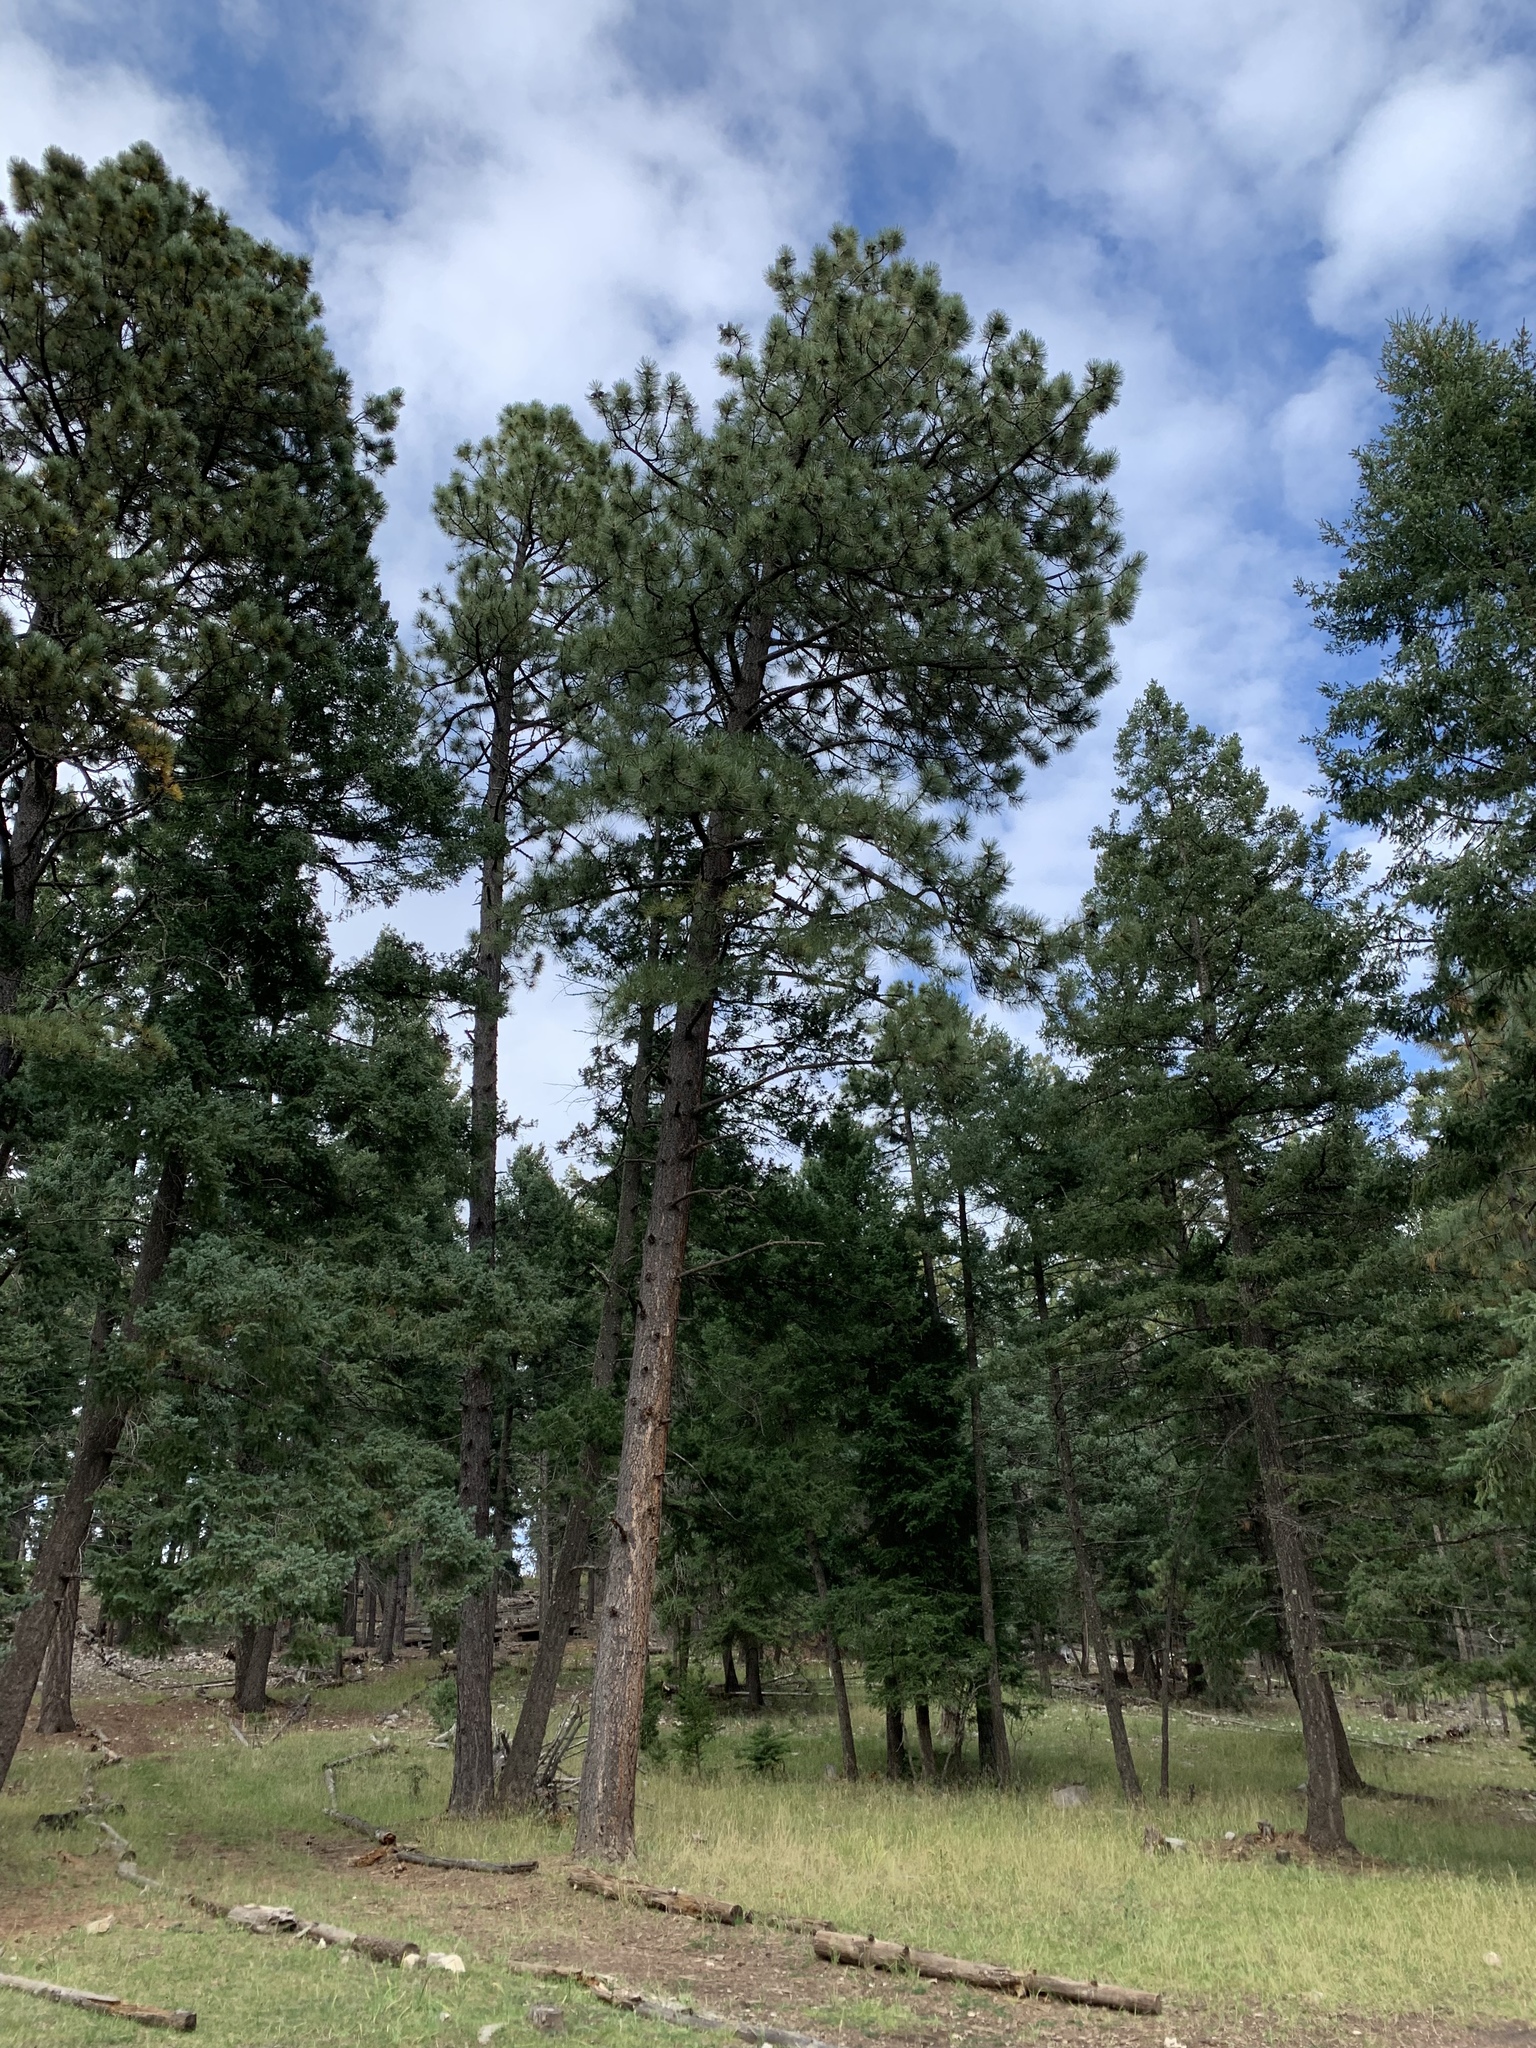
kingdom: Plantae
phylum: Tracheophyta
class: Pinopsida
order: Pinales
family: Pinaceae
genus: Pinus
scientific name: Pinus ponderosa
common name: Western yellow-pine
